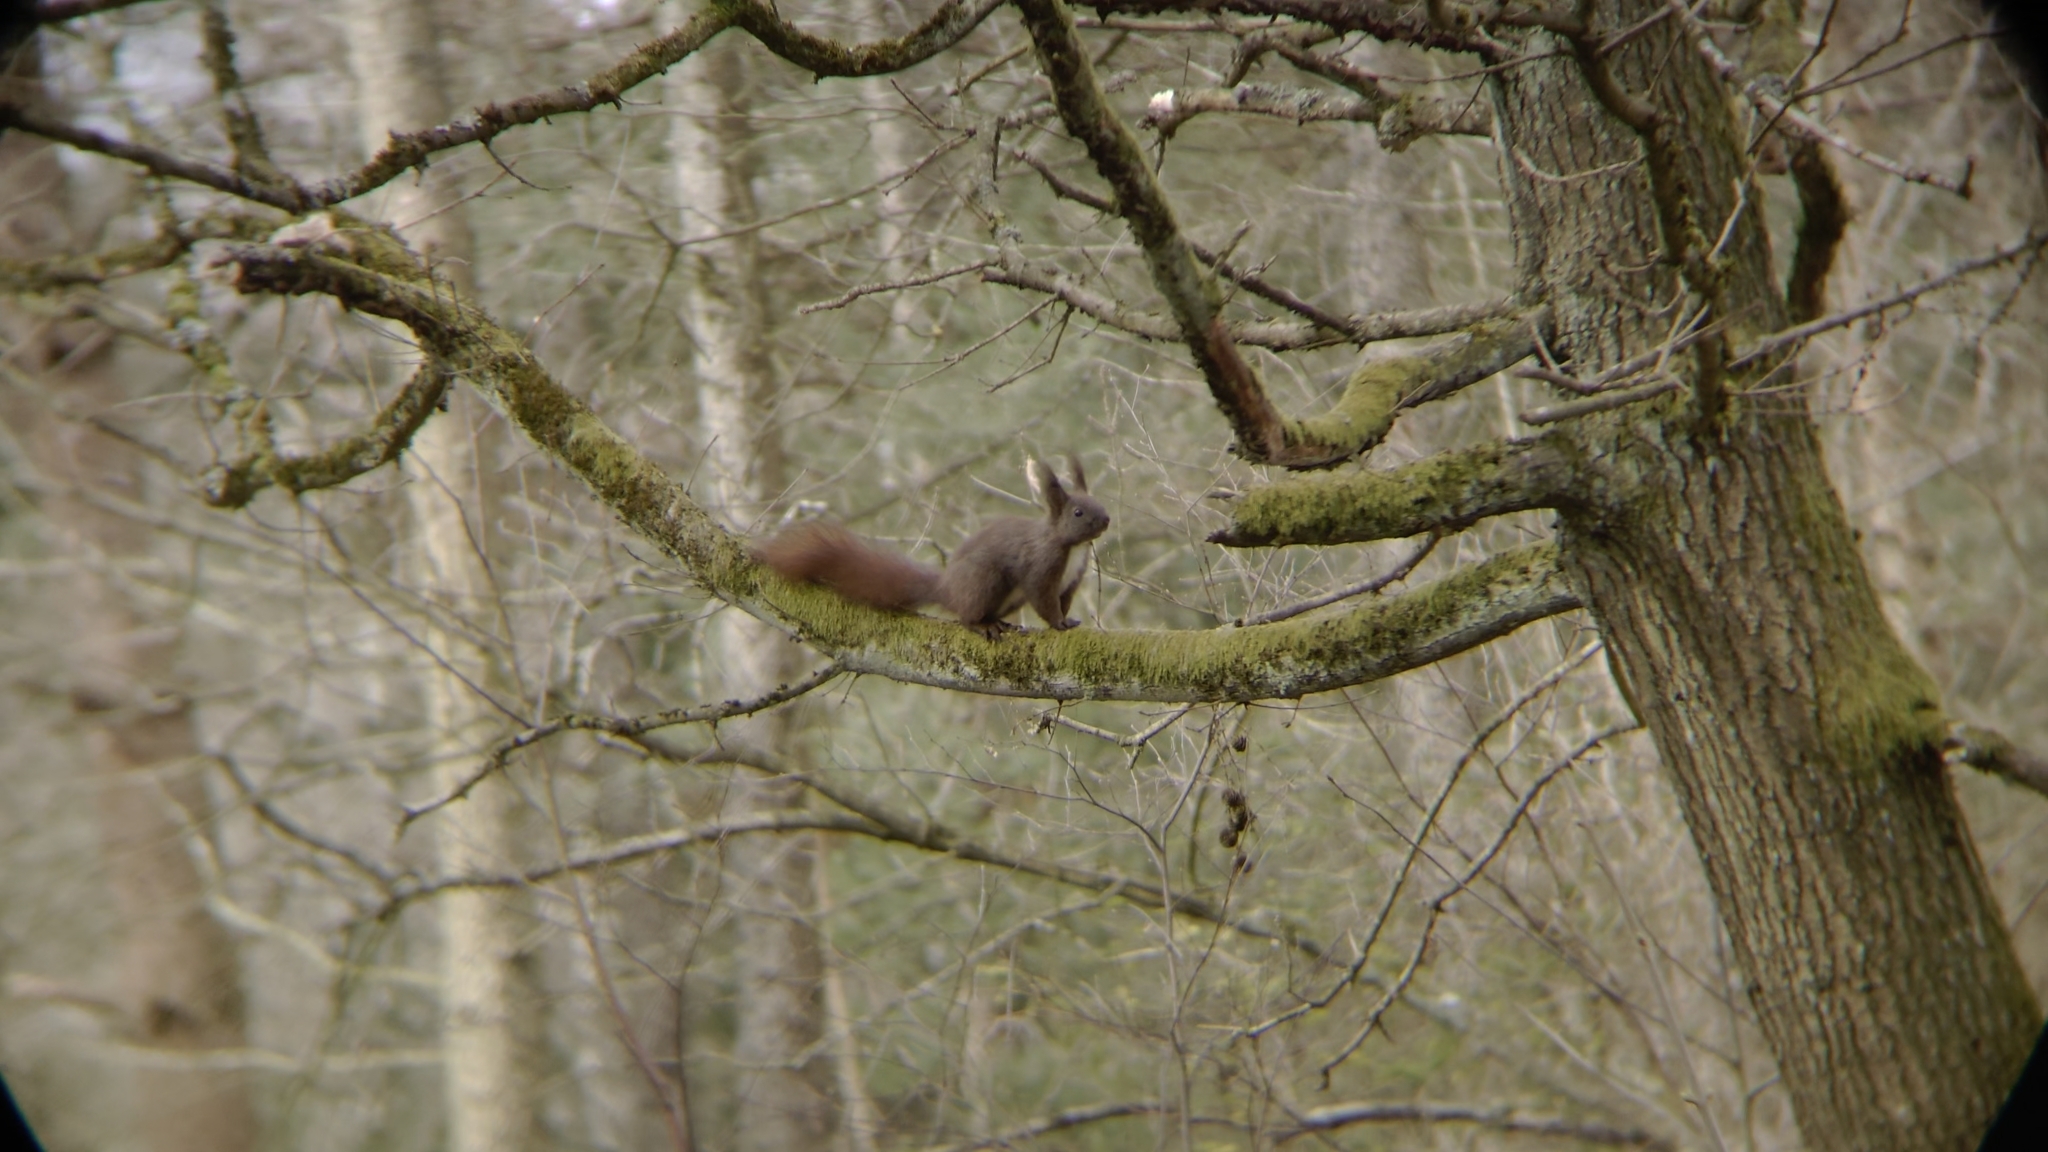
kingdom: Animalia
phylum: Chordata
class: Mammalia
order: Rodentia
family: Sciuridae
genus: Sciurus
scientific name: Sciurus vulgaris
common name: Eurasian red squirrel
